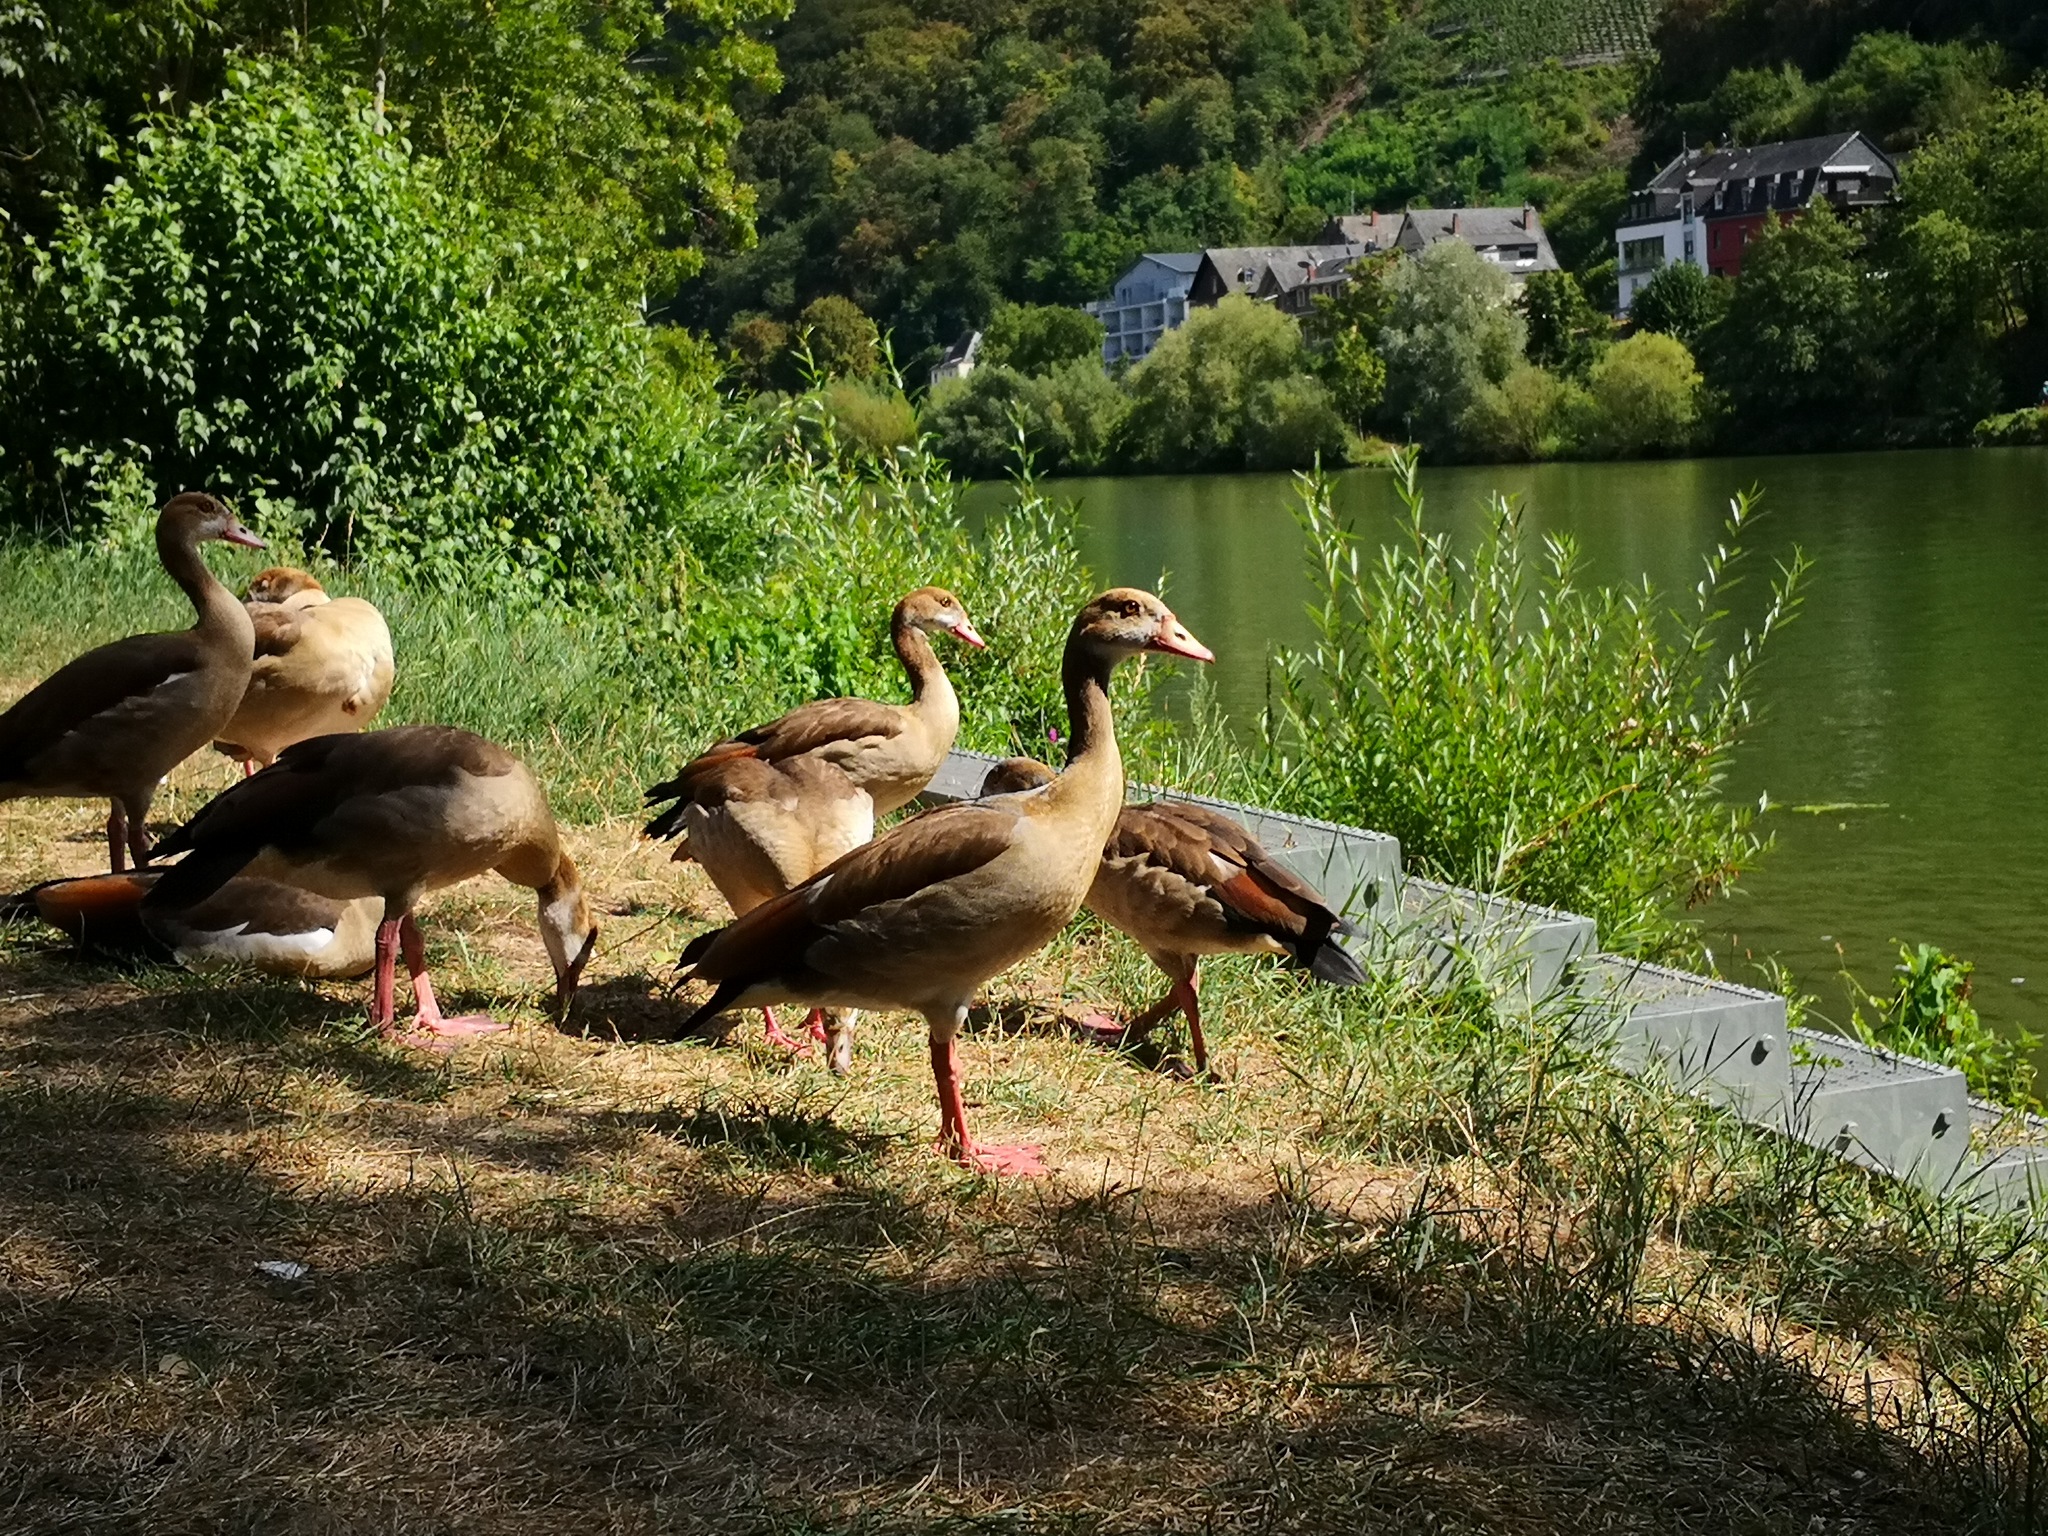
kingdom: Animalia
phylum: Chordata
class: Aves
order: Anseriformes
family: Anatidae
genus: Alopochen
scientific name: Alopochen aegyptiaca
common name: Egyptian goose
